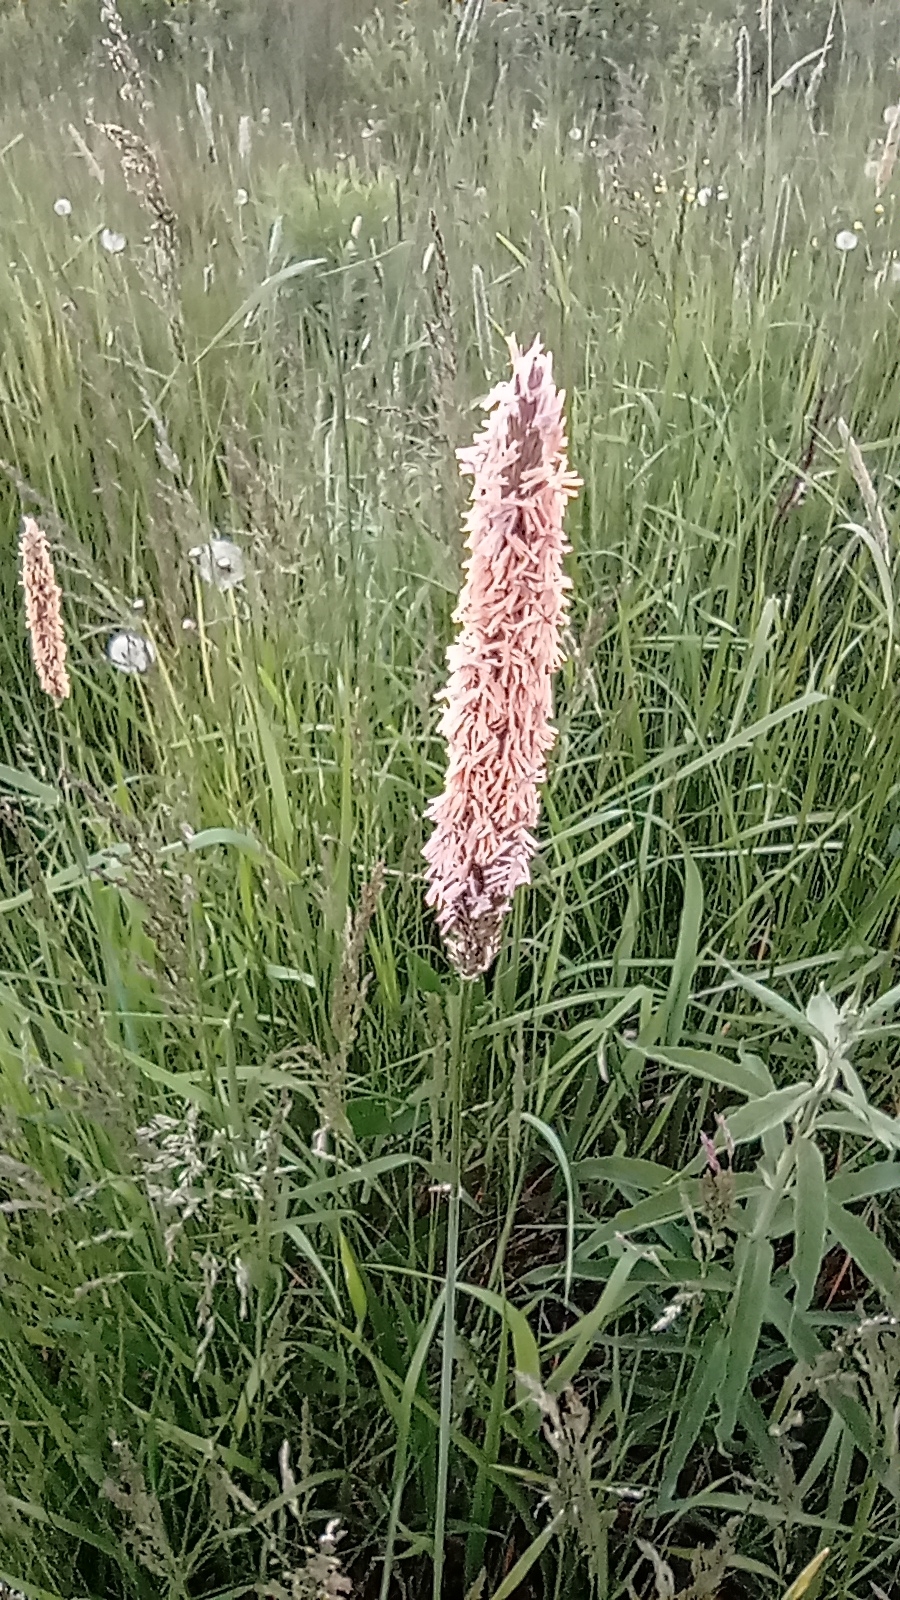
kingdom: Plantae
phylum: Tracheophyta
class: Liliopsida
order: Poales
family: Poaceae
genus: Alopecurus
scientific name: Alopecurus pratensis
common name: Meadow foxtail
